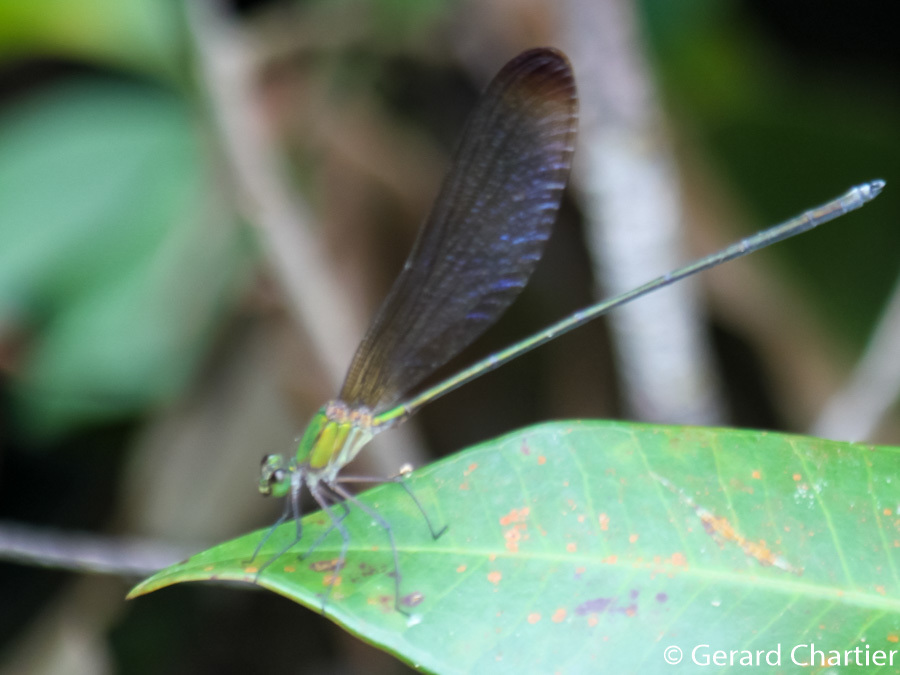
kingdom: Animalia
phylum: Arthropoda
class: Insecta
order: Odonata
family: Calopterygidae
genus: Vestalis
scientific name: Vestalis gracilis
